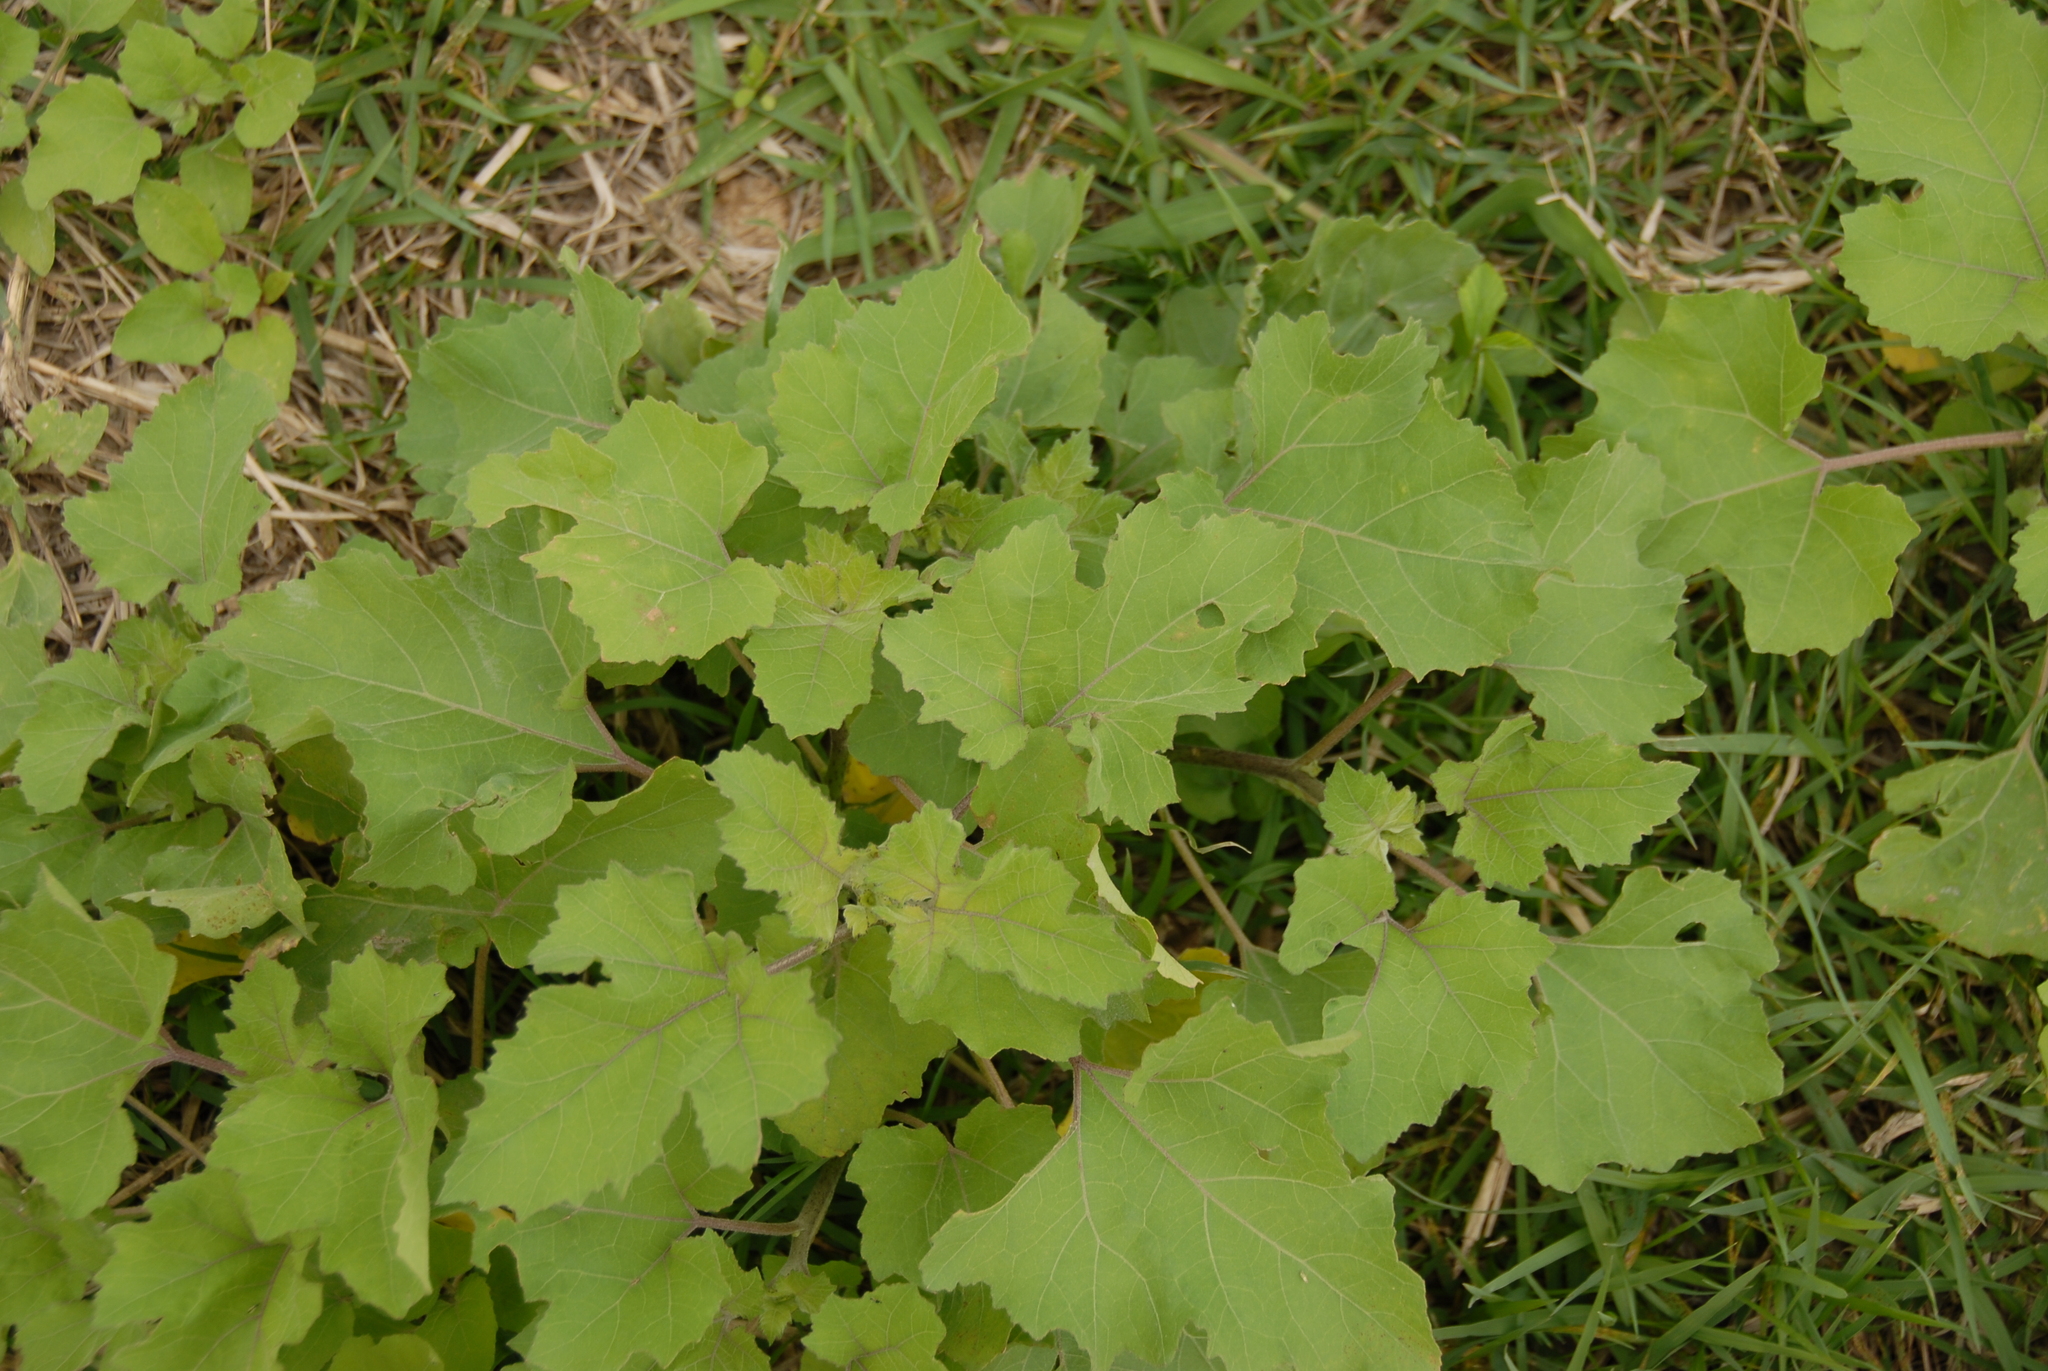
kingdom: Plantae
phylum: Tracheophyta
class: Magnoliopsida
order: Asterales
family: Asteraceae
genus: Xanthium
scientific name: Xanthium strumarium
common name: Rough cocklebur
